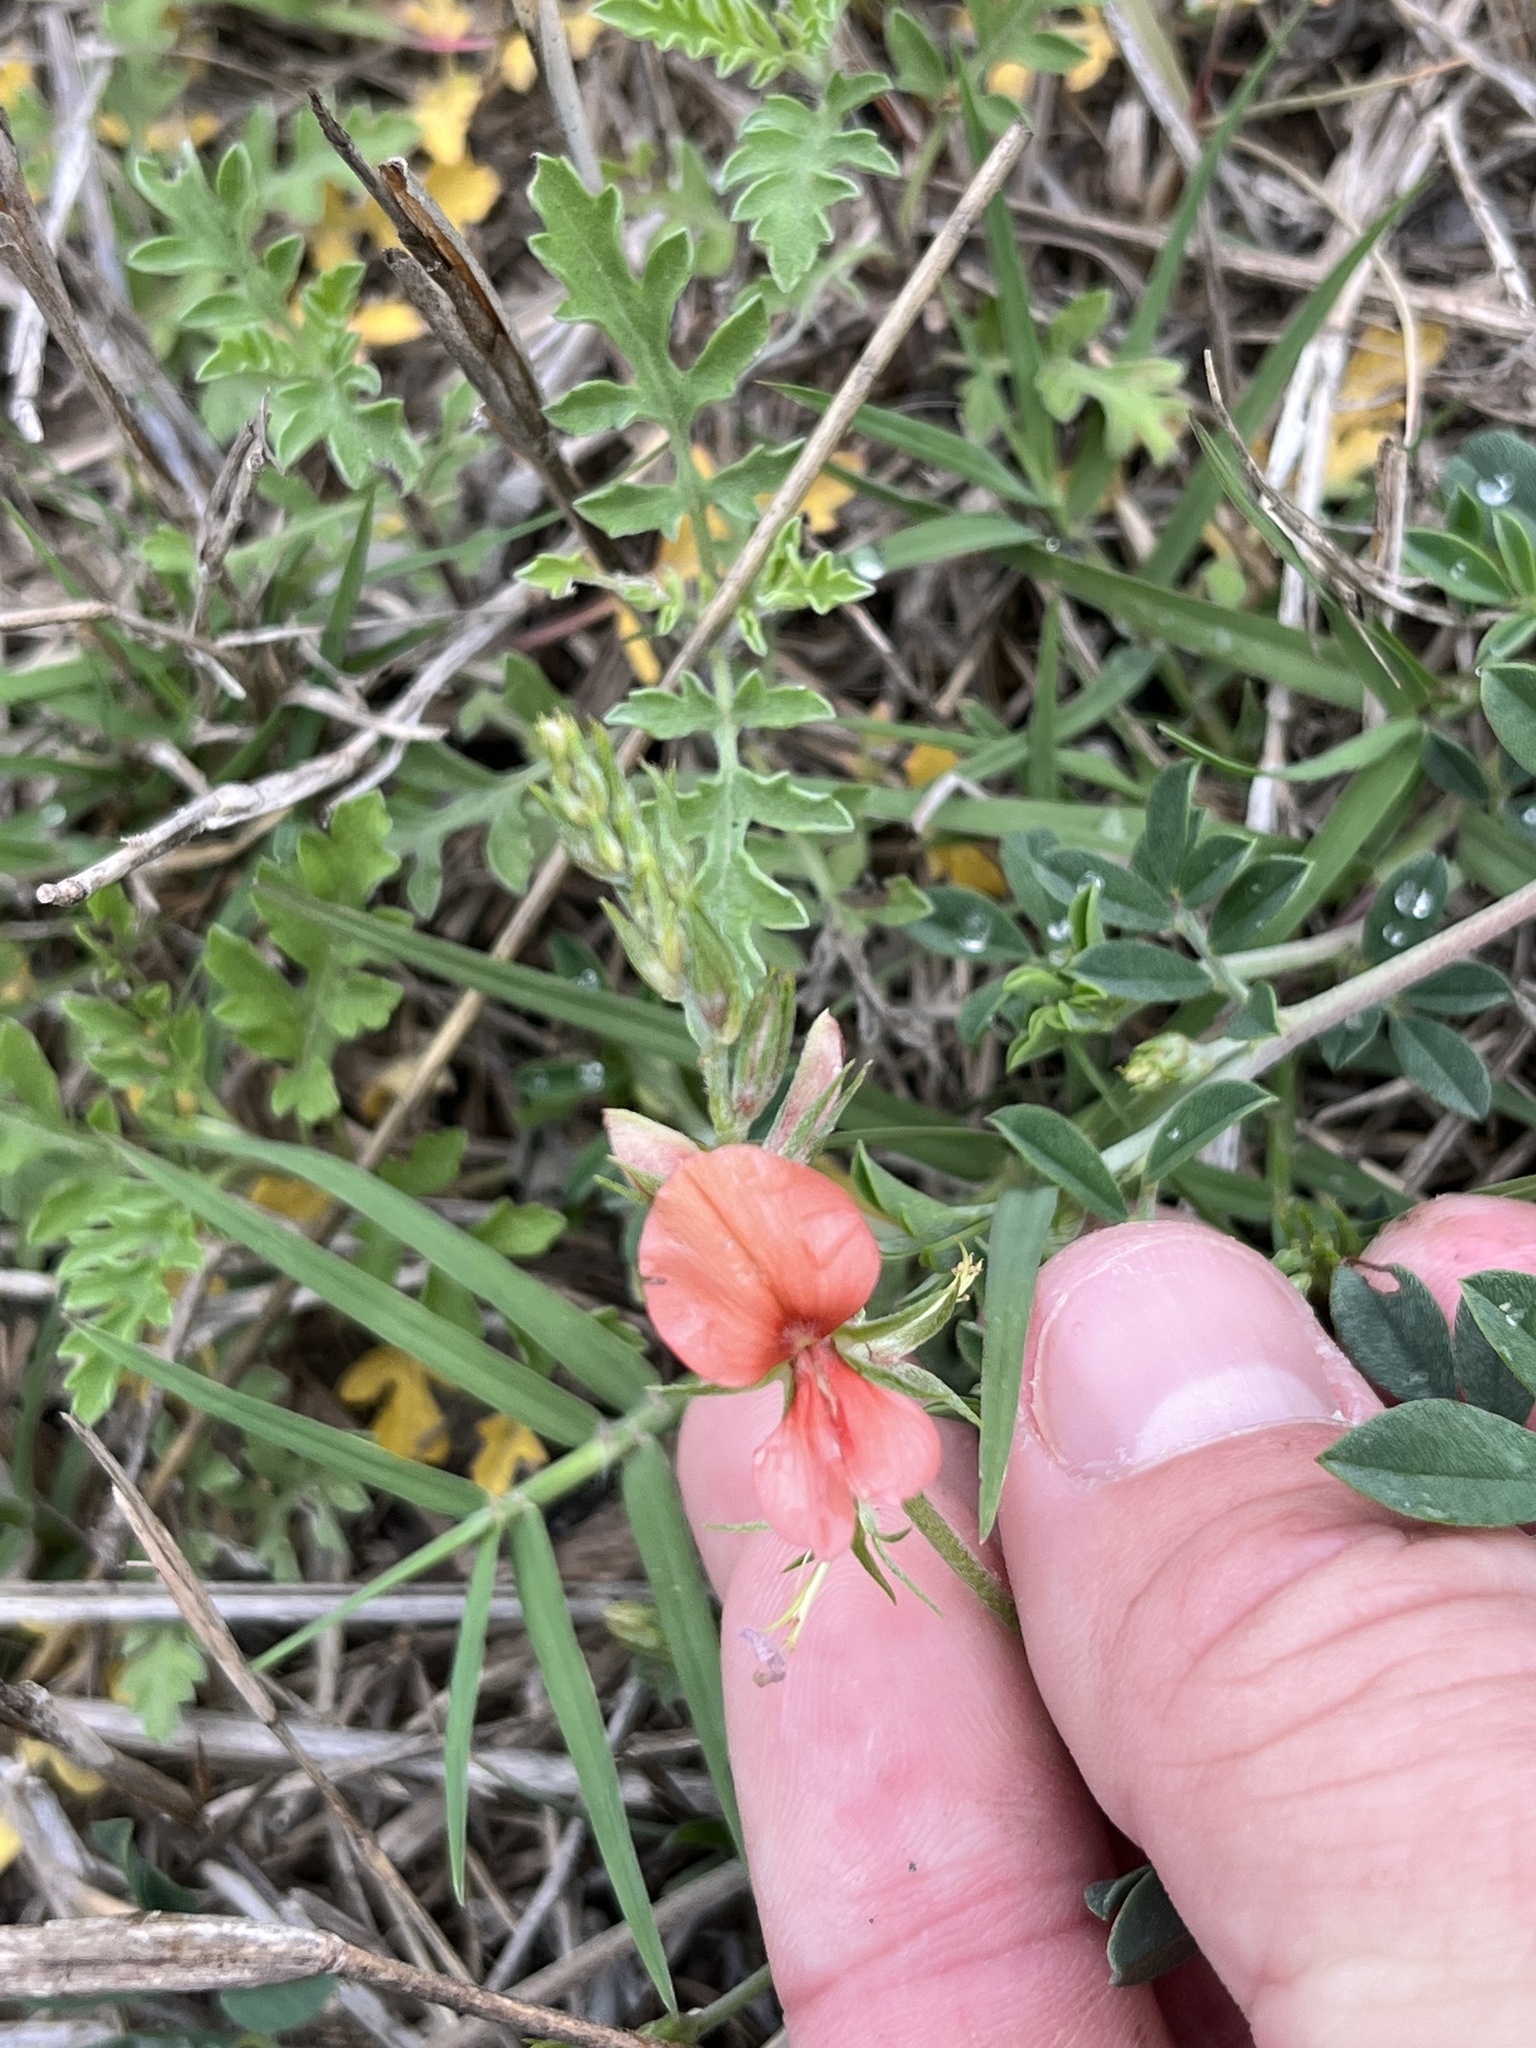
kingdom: Plantae
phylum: Tracheophyta
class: Magnoliopsida
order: Fabales
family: Fabaceae
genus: Indigofera
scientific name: Indigofera miniata
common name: Coast indigo
